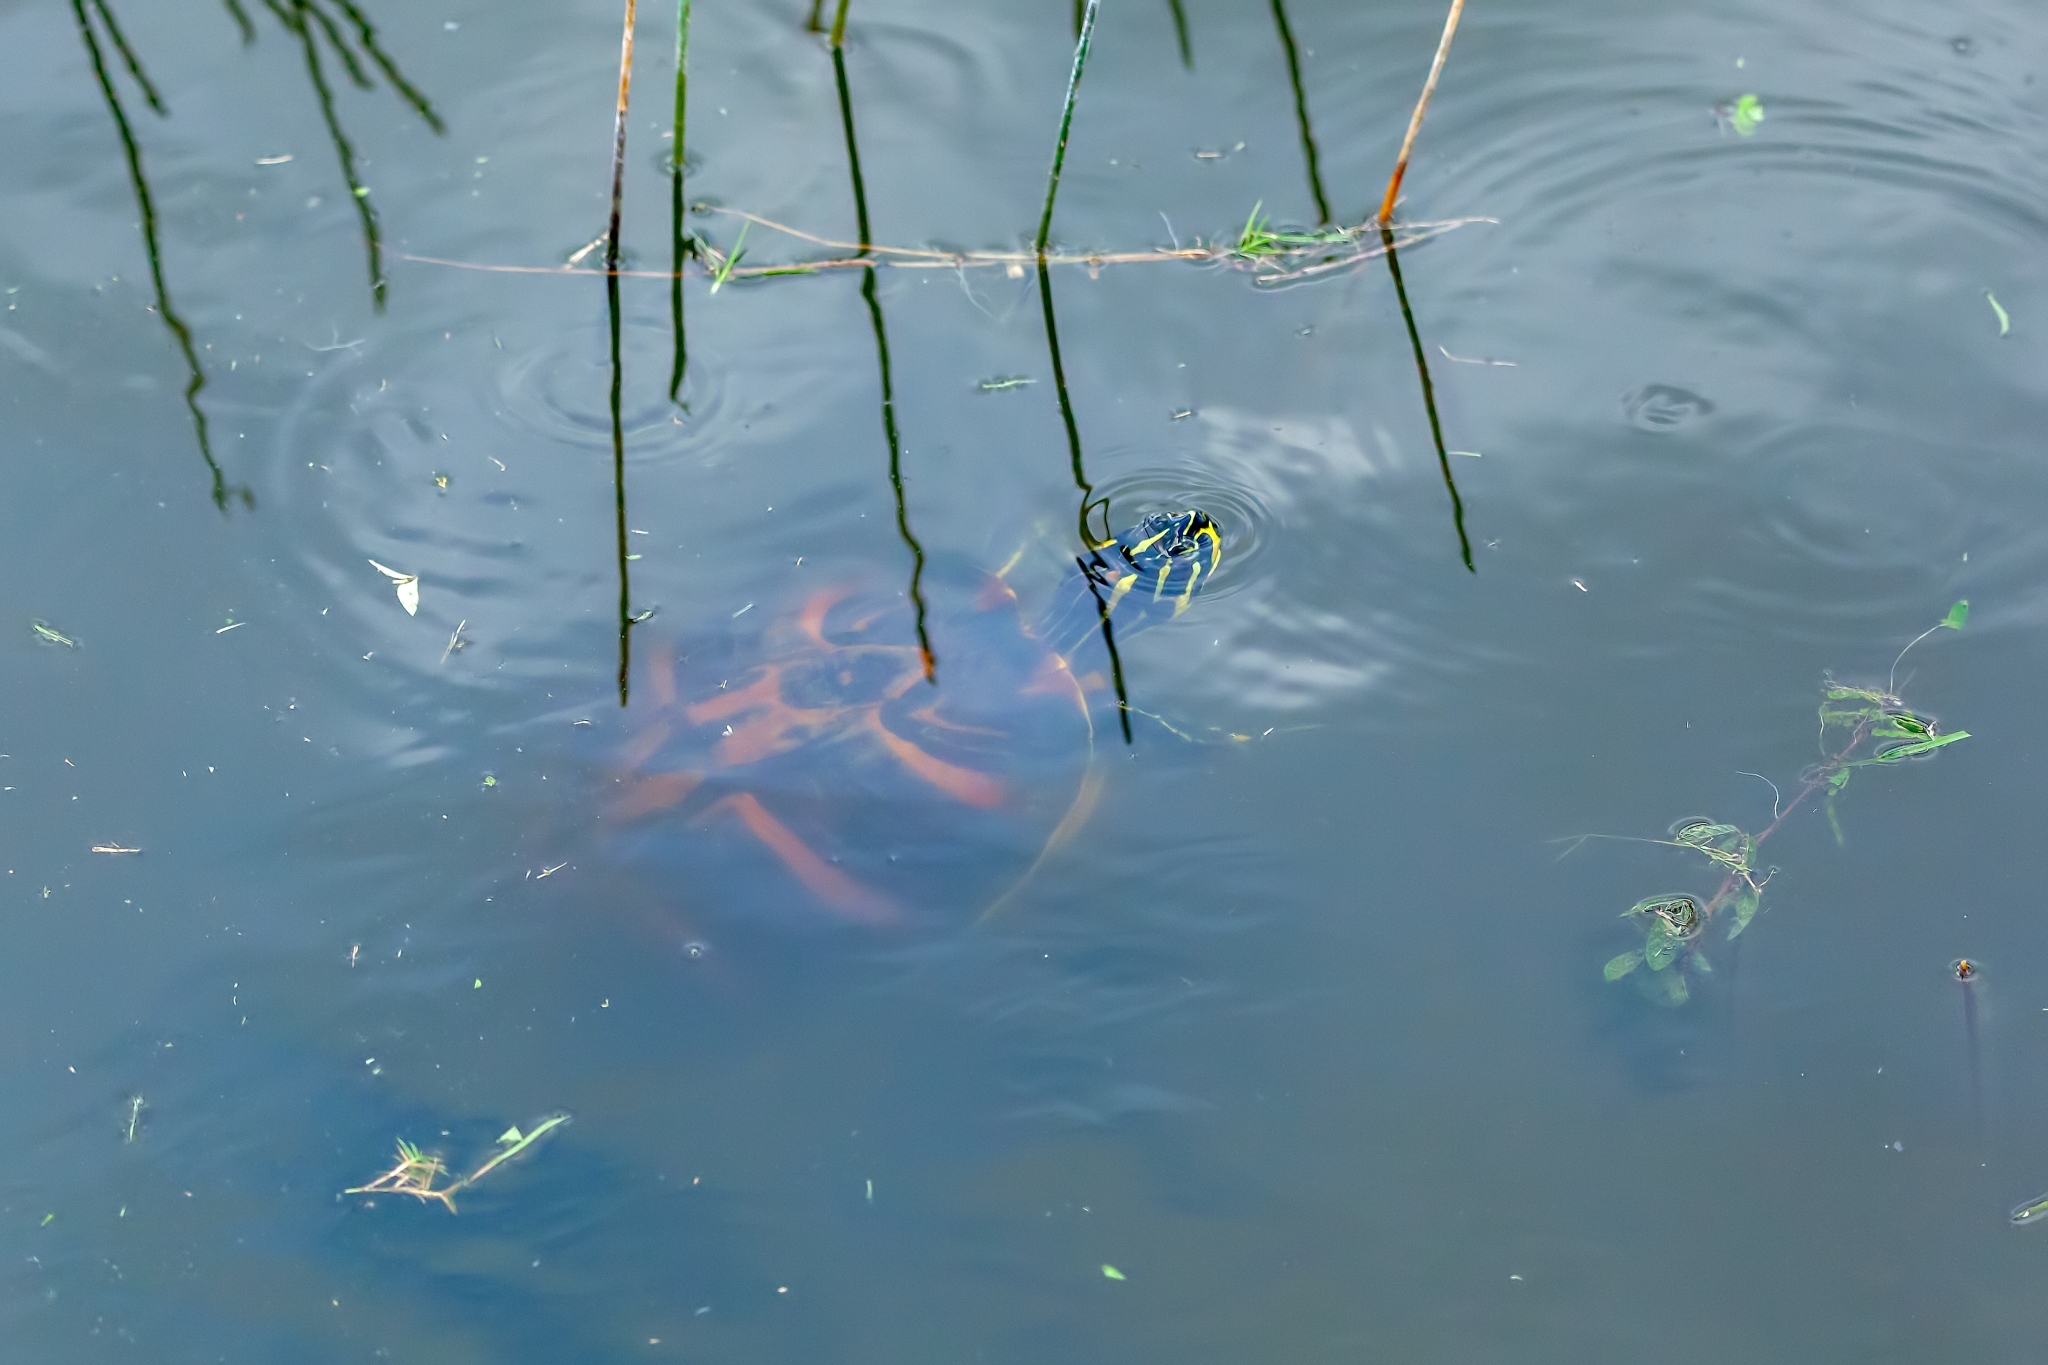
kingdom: Animalia
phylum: Chordata
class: Testudines
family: Emydidae
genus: Pseudemys
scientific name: Pseudemys nelsoni
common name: Florida red-bellied turtle
